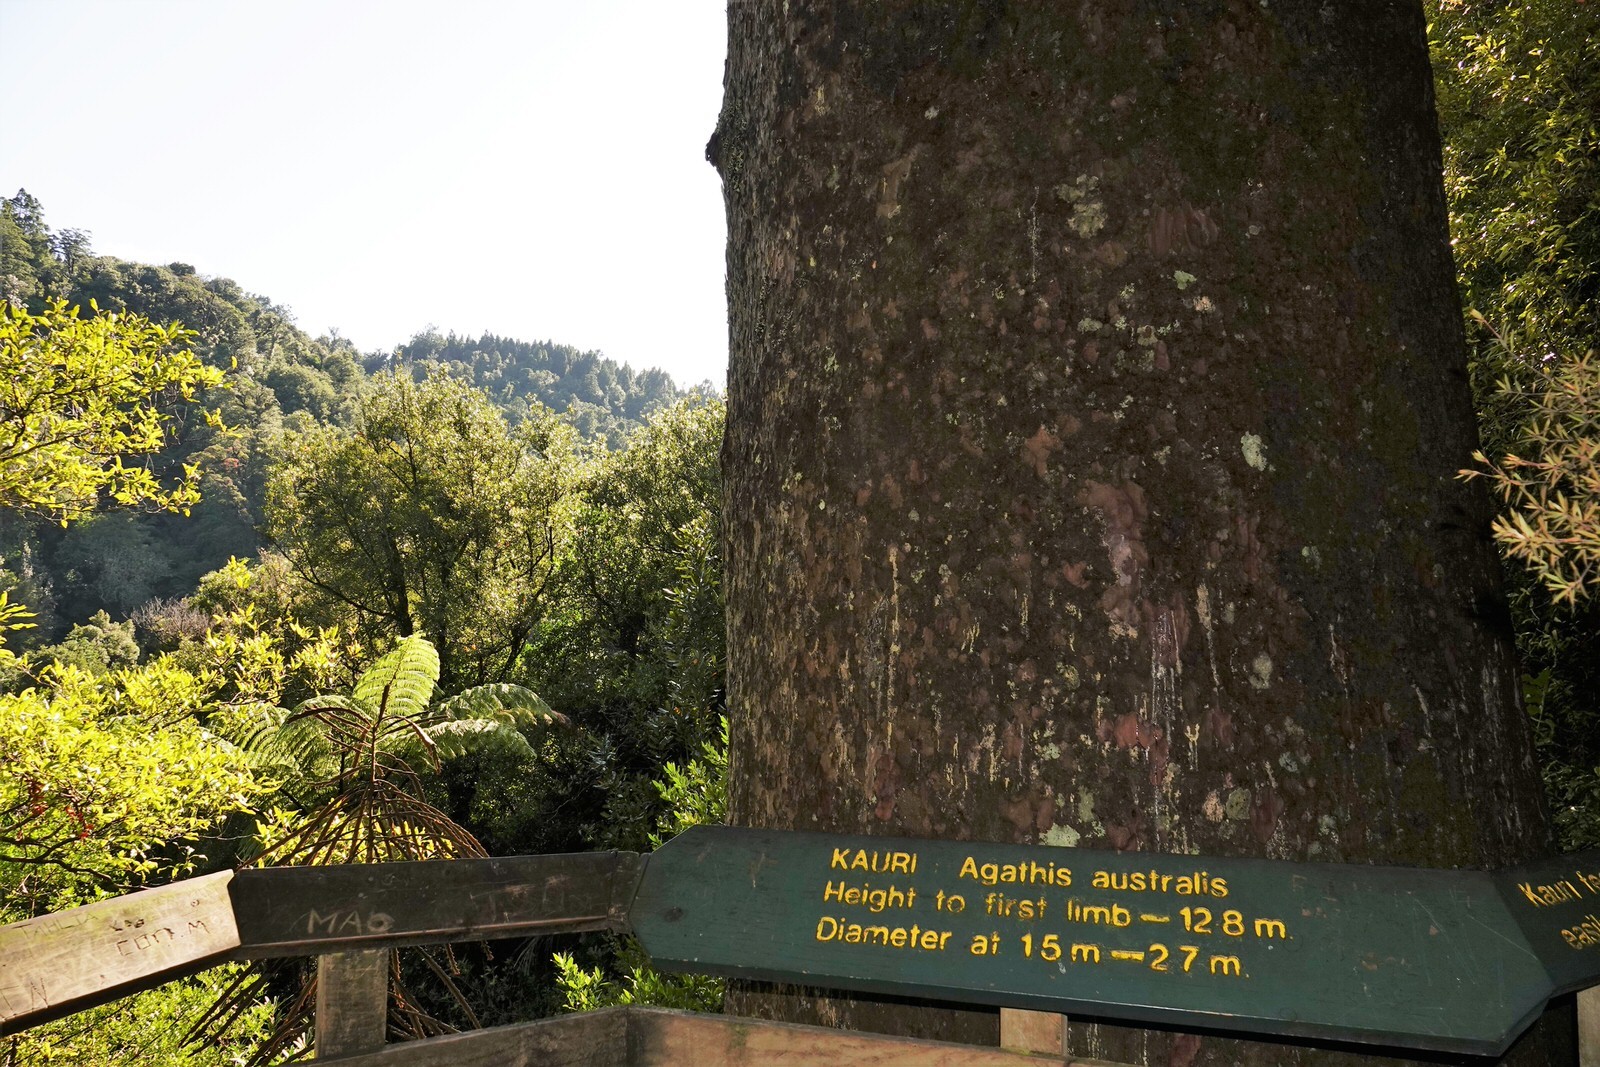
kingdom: Plantae
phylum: Tracheophyta
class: Pinopsida
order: Pinales
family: Araucariaceae
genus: Agathis
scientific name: Agathis australis
